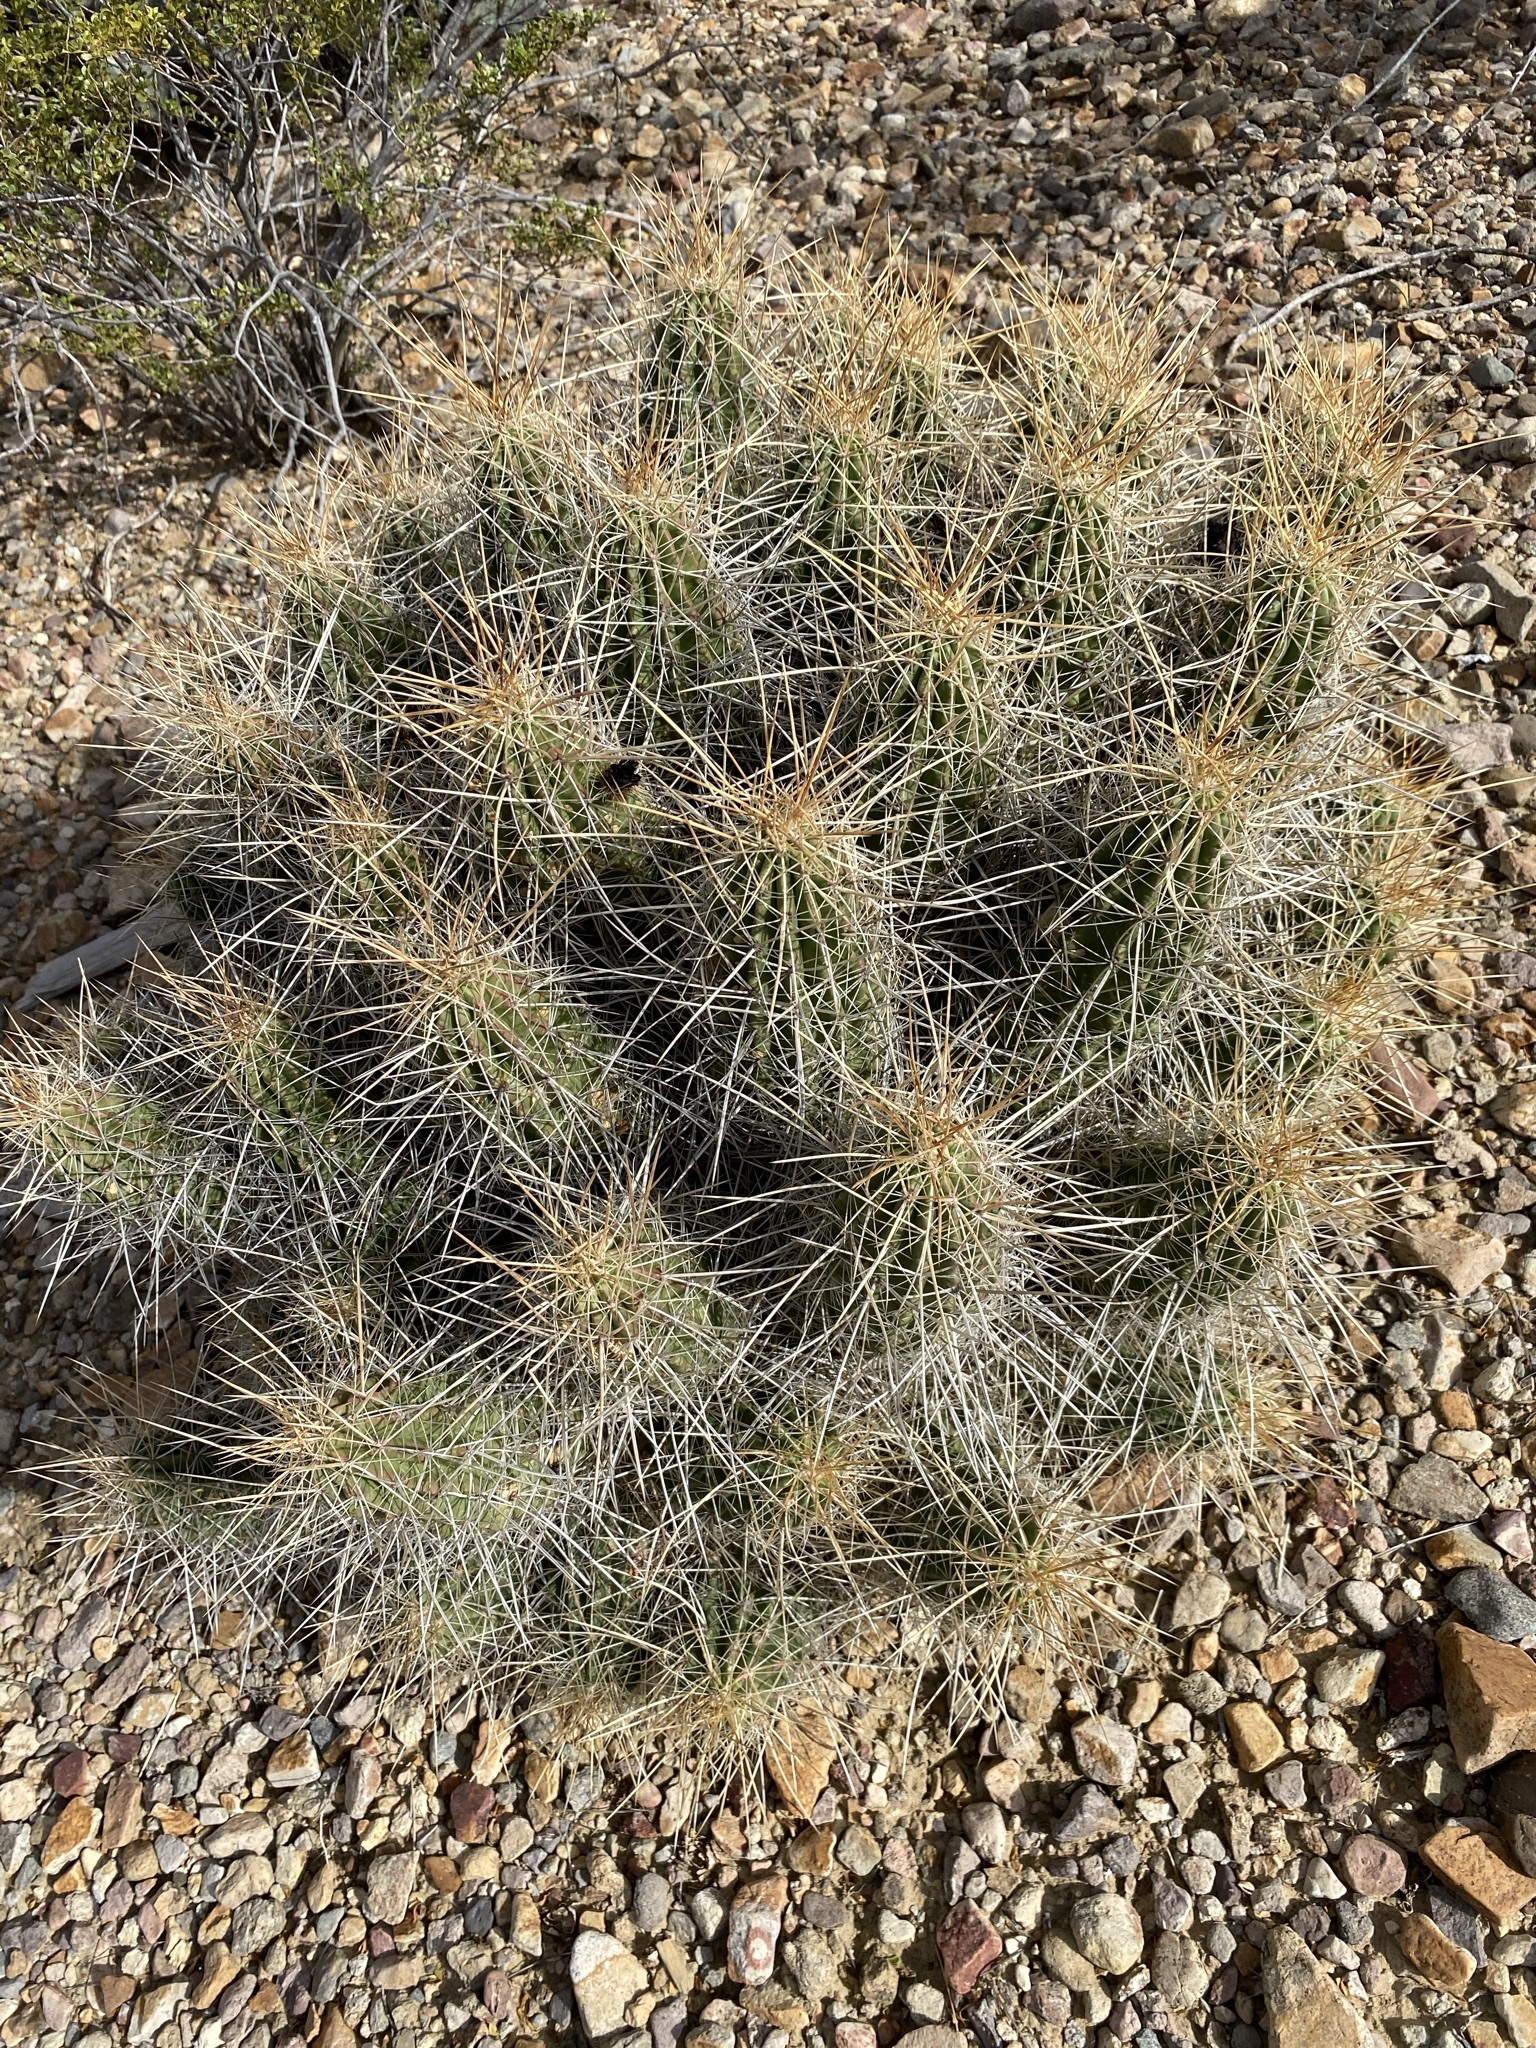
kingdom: Plantae
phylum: Tracheophyta
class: Magnoliopsida
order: Caryophyllales
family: Cactaceae
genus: Echinocereus
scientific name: Echinocereus stramineus
